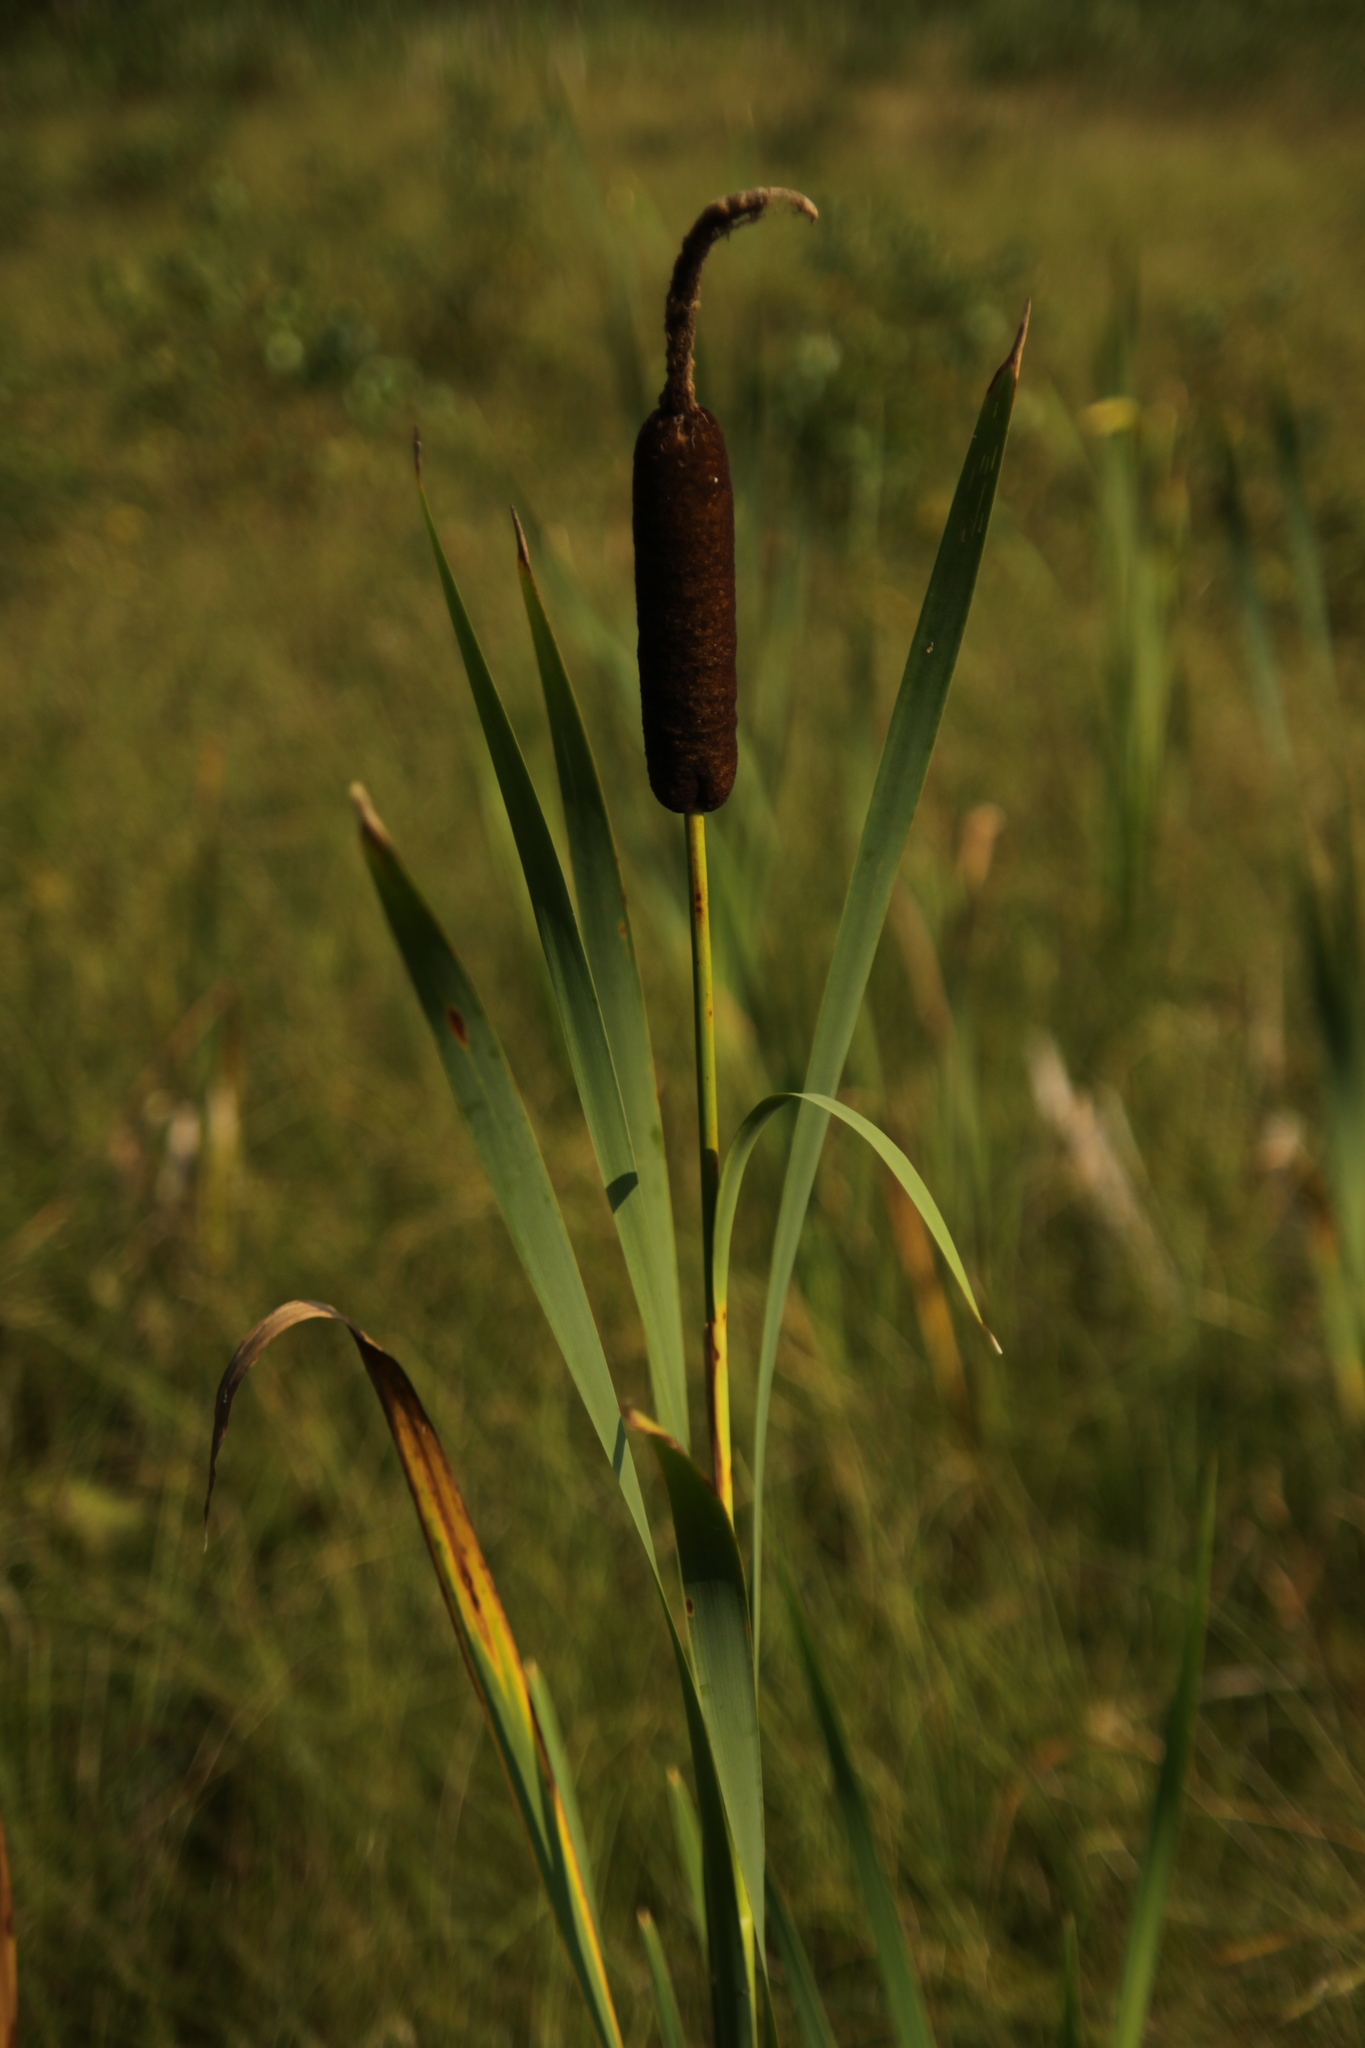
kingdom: Plantae
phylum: Tracheophyta
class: Liliopsida
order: Poales
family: Typhaceae
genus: Typha
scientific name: Typha latifolia
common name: Broadleaf cattail
